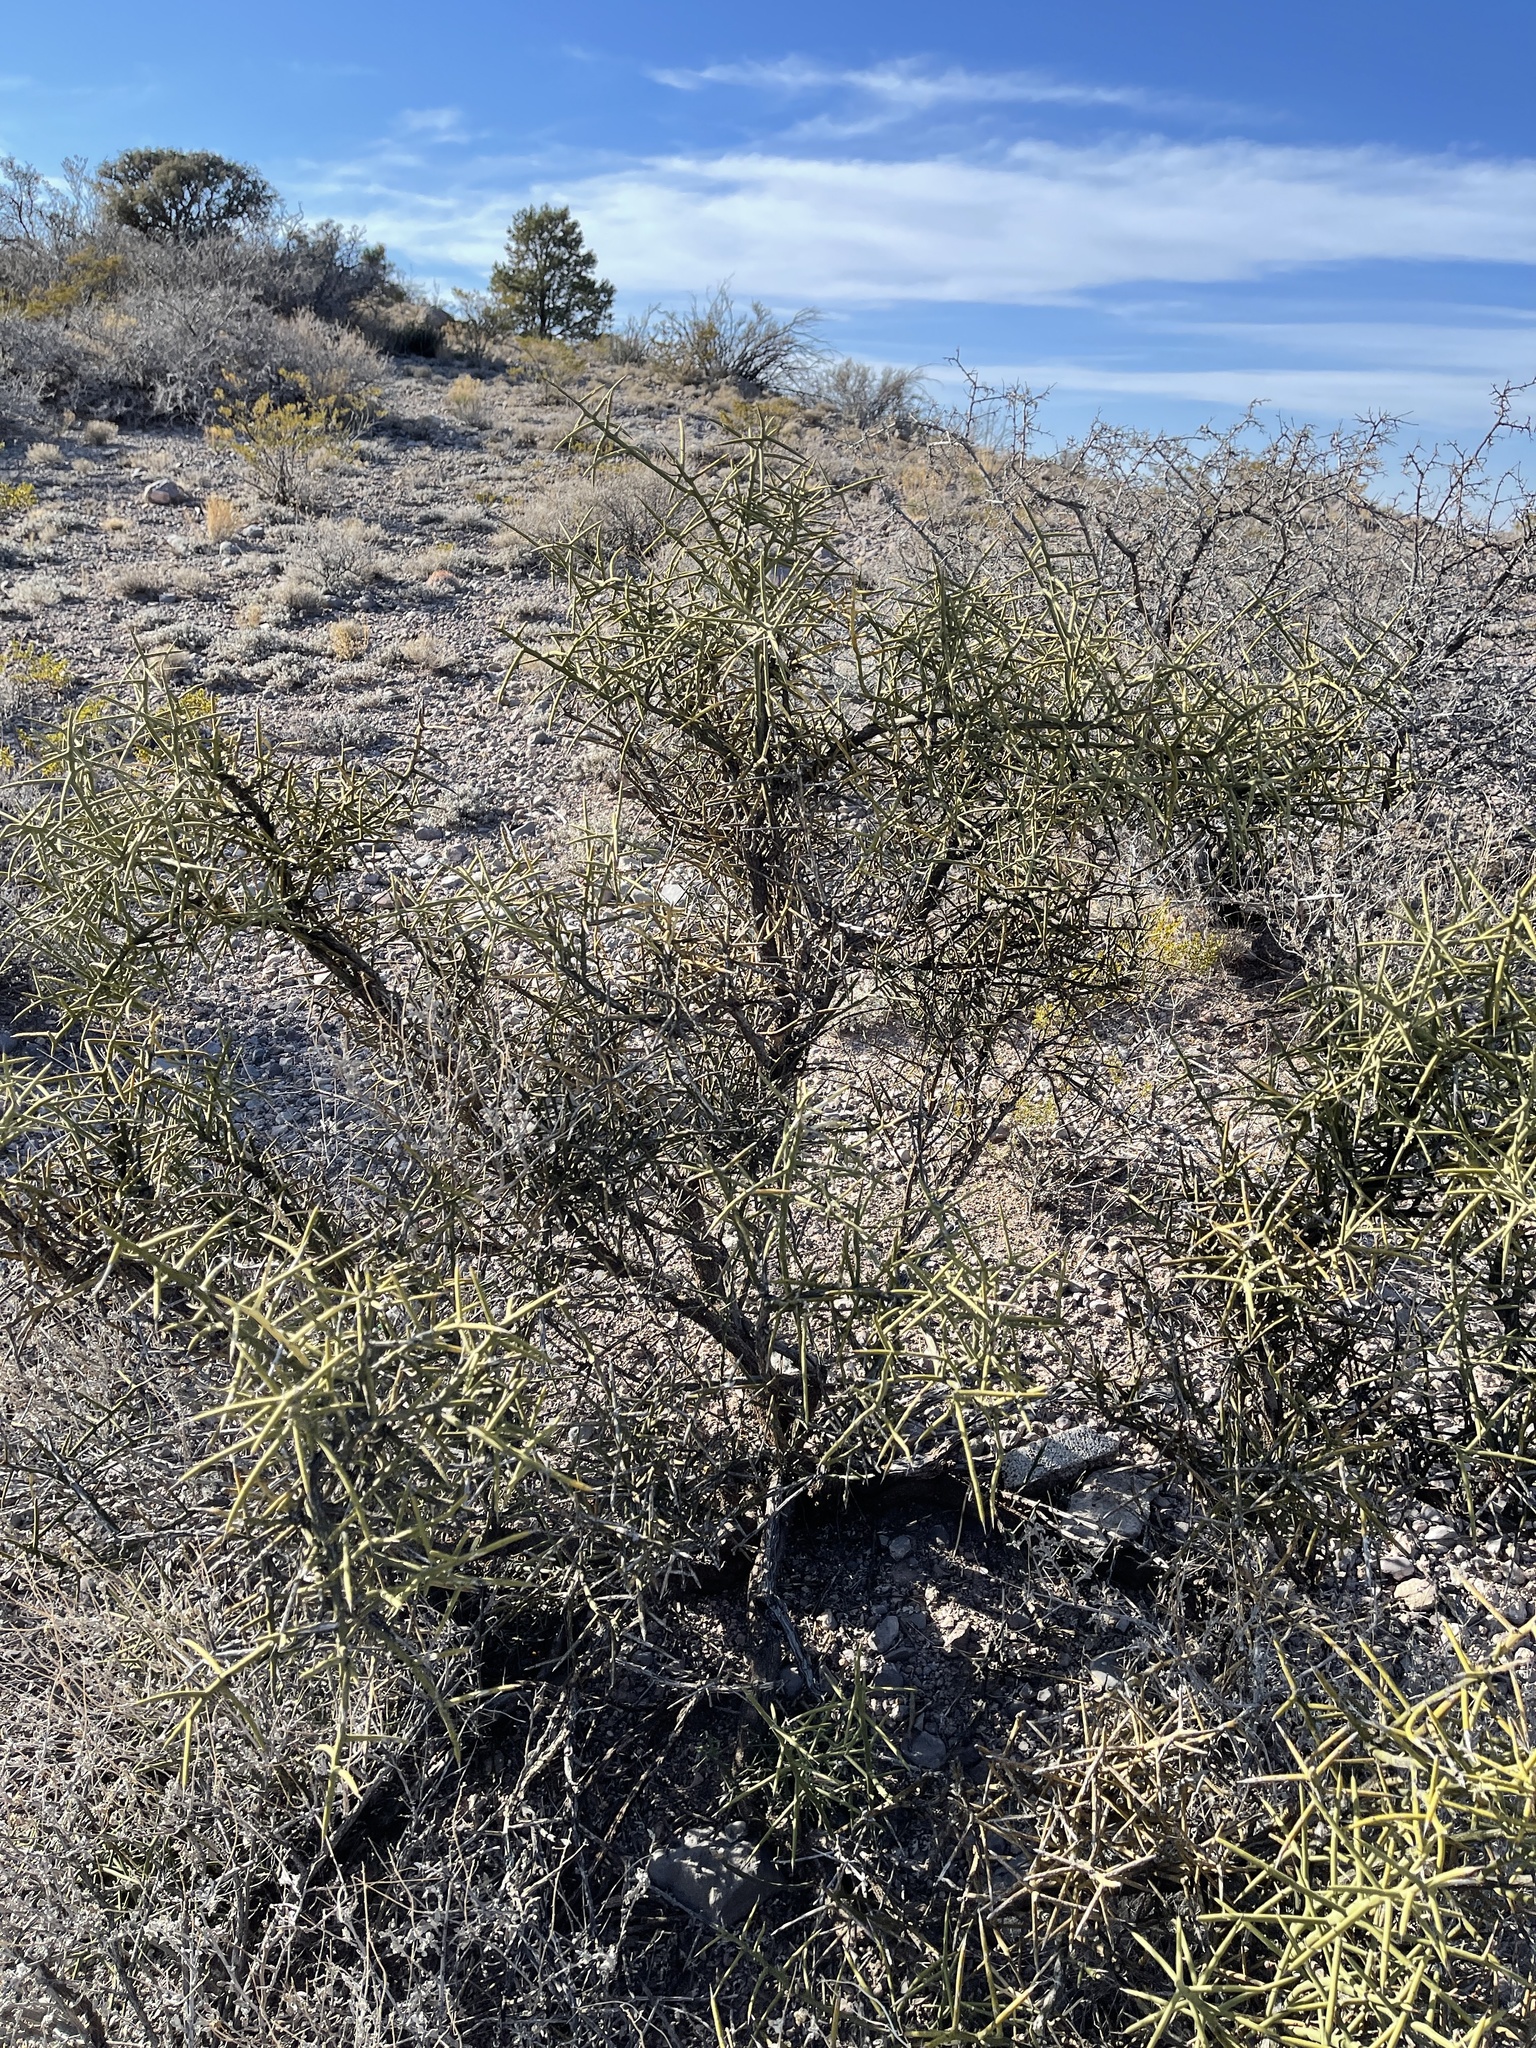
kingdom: Plantae
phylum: Tracheophyta
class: Magnoliopsida
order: Brassicales
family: Koeberliniaceae
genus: Koeberlinia
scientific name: Koeberlinia spinosa
